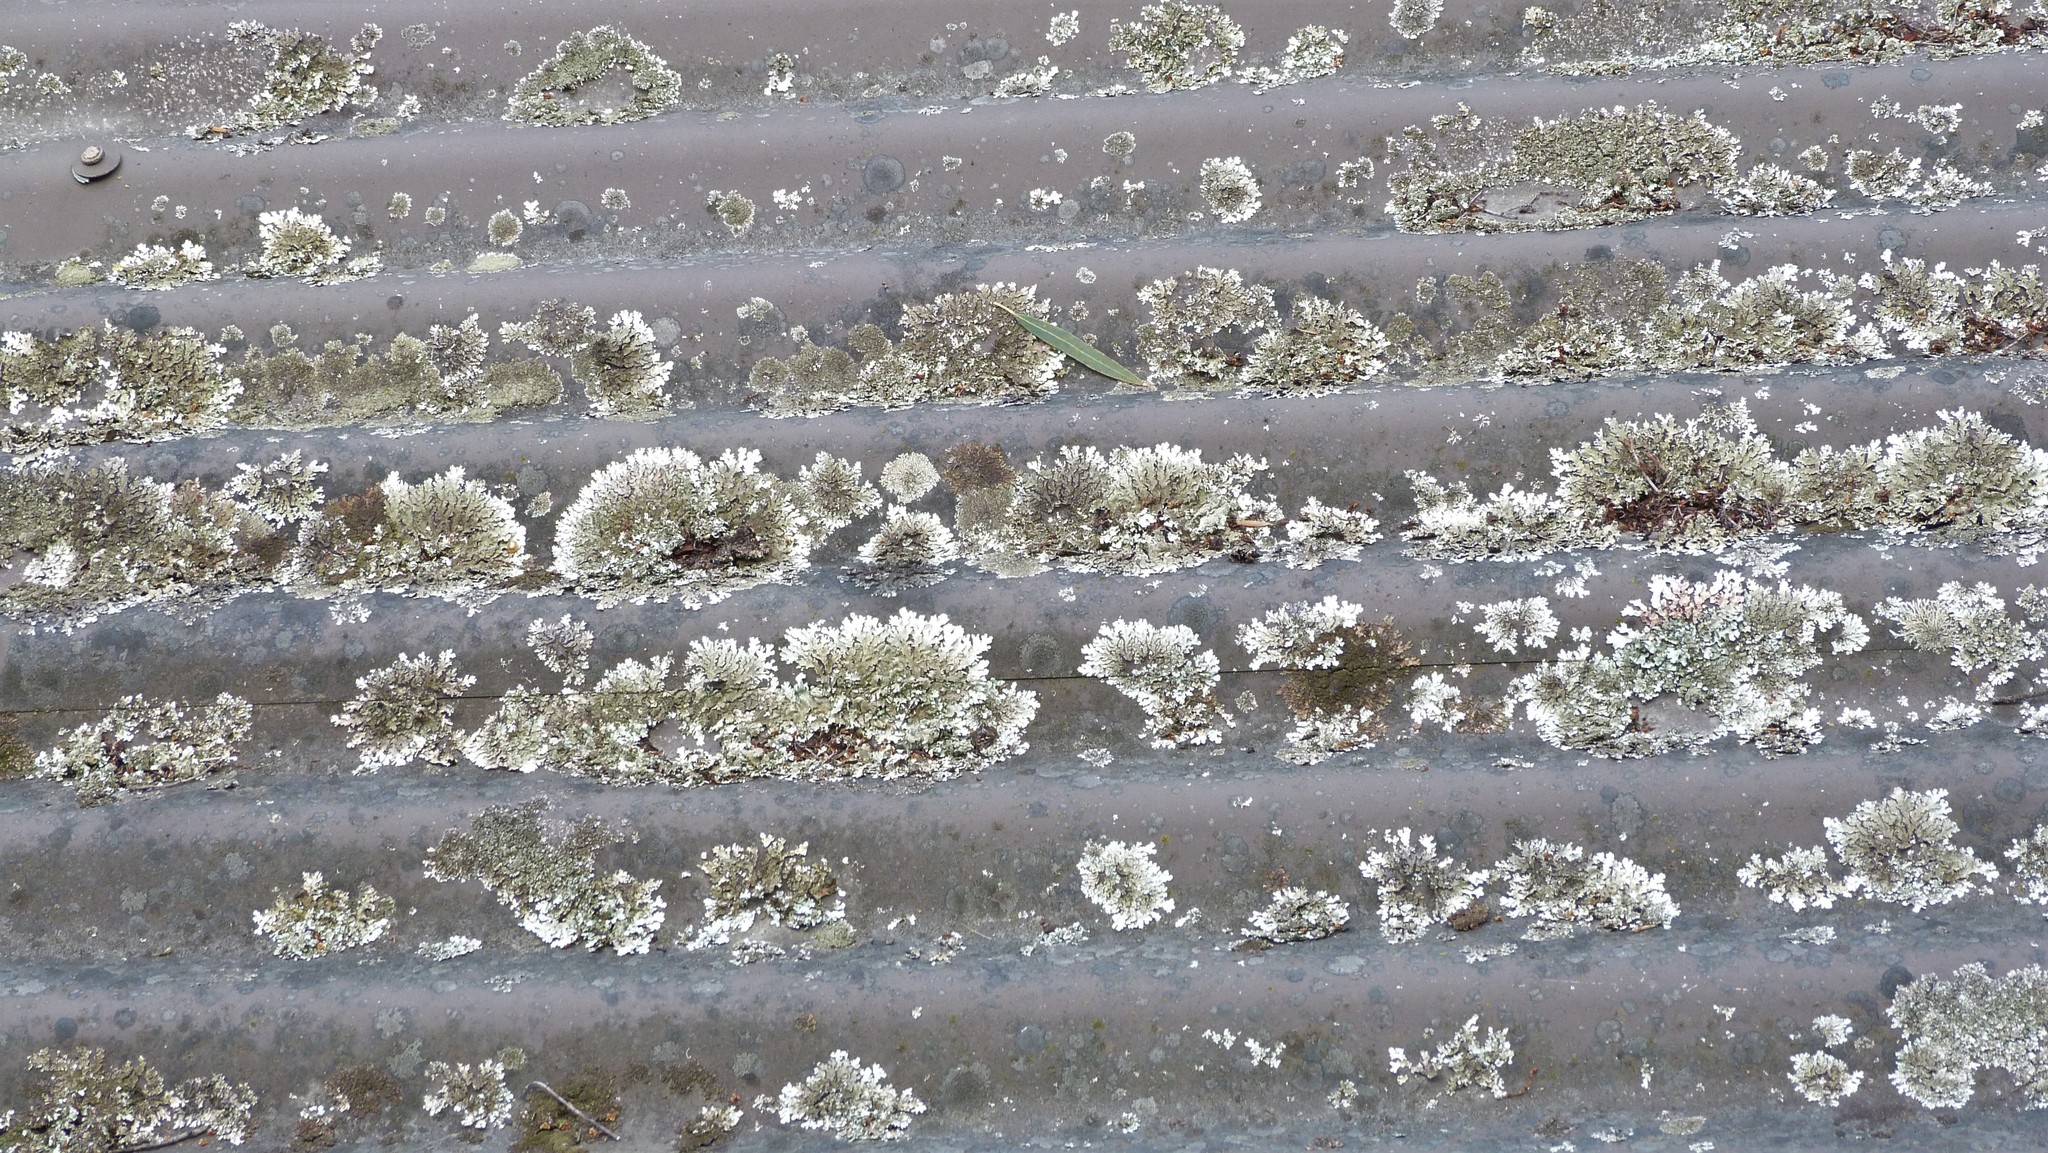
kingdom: Fungi
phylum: Ascomycota
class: Lecanoromycetes
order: Lecanorales
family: Parmeliaceae
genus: Xanthoparmelia
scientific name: Xanthoparmelia scabrosa
